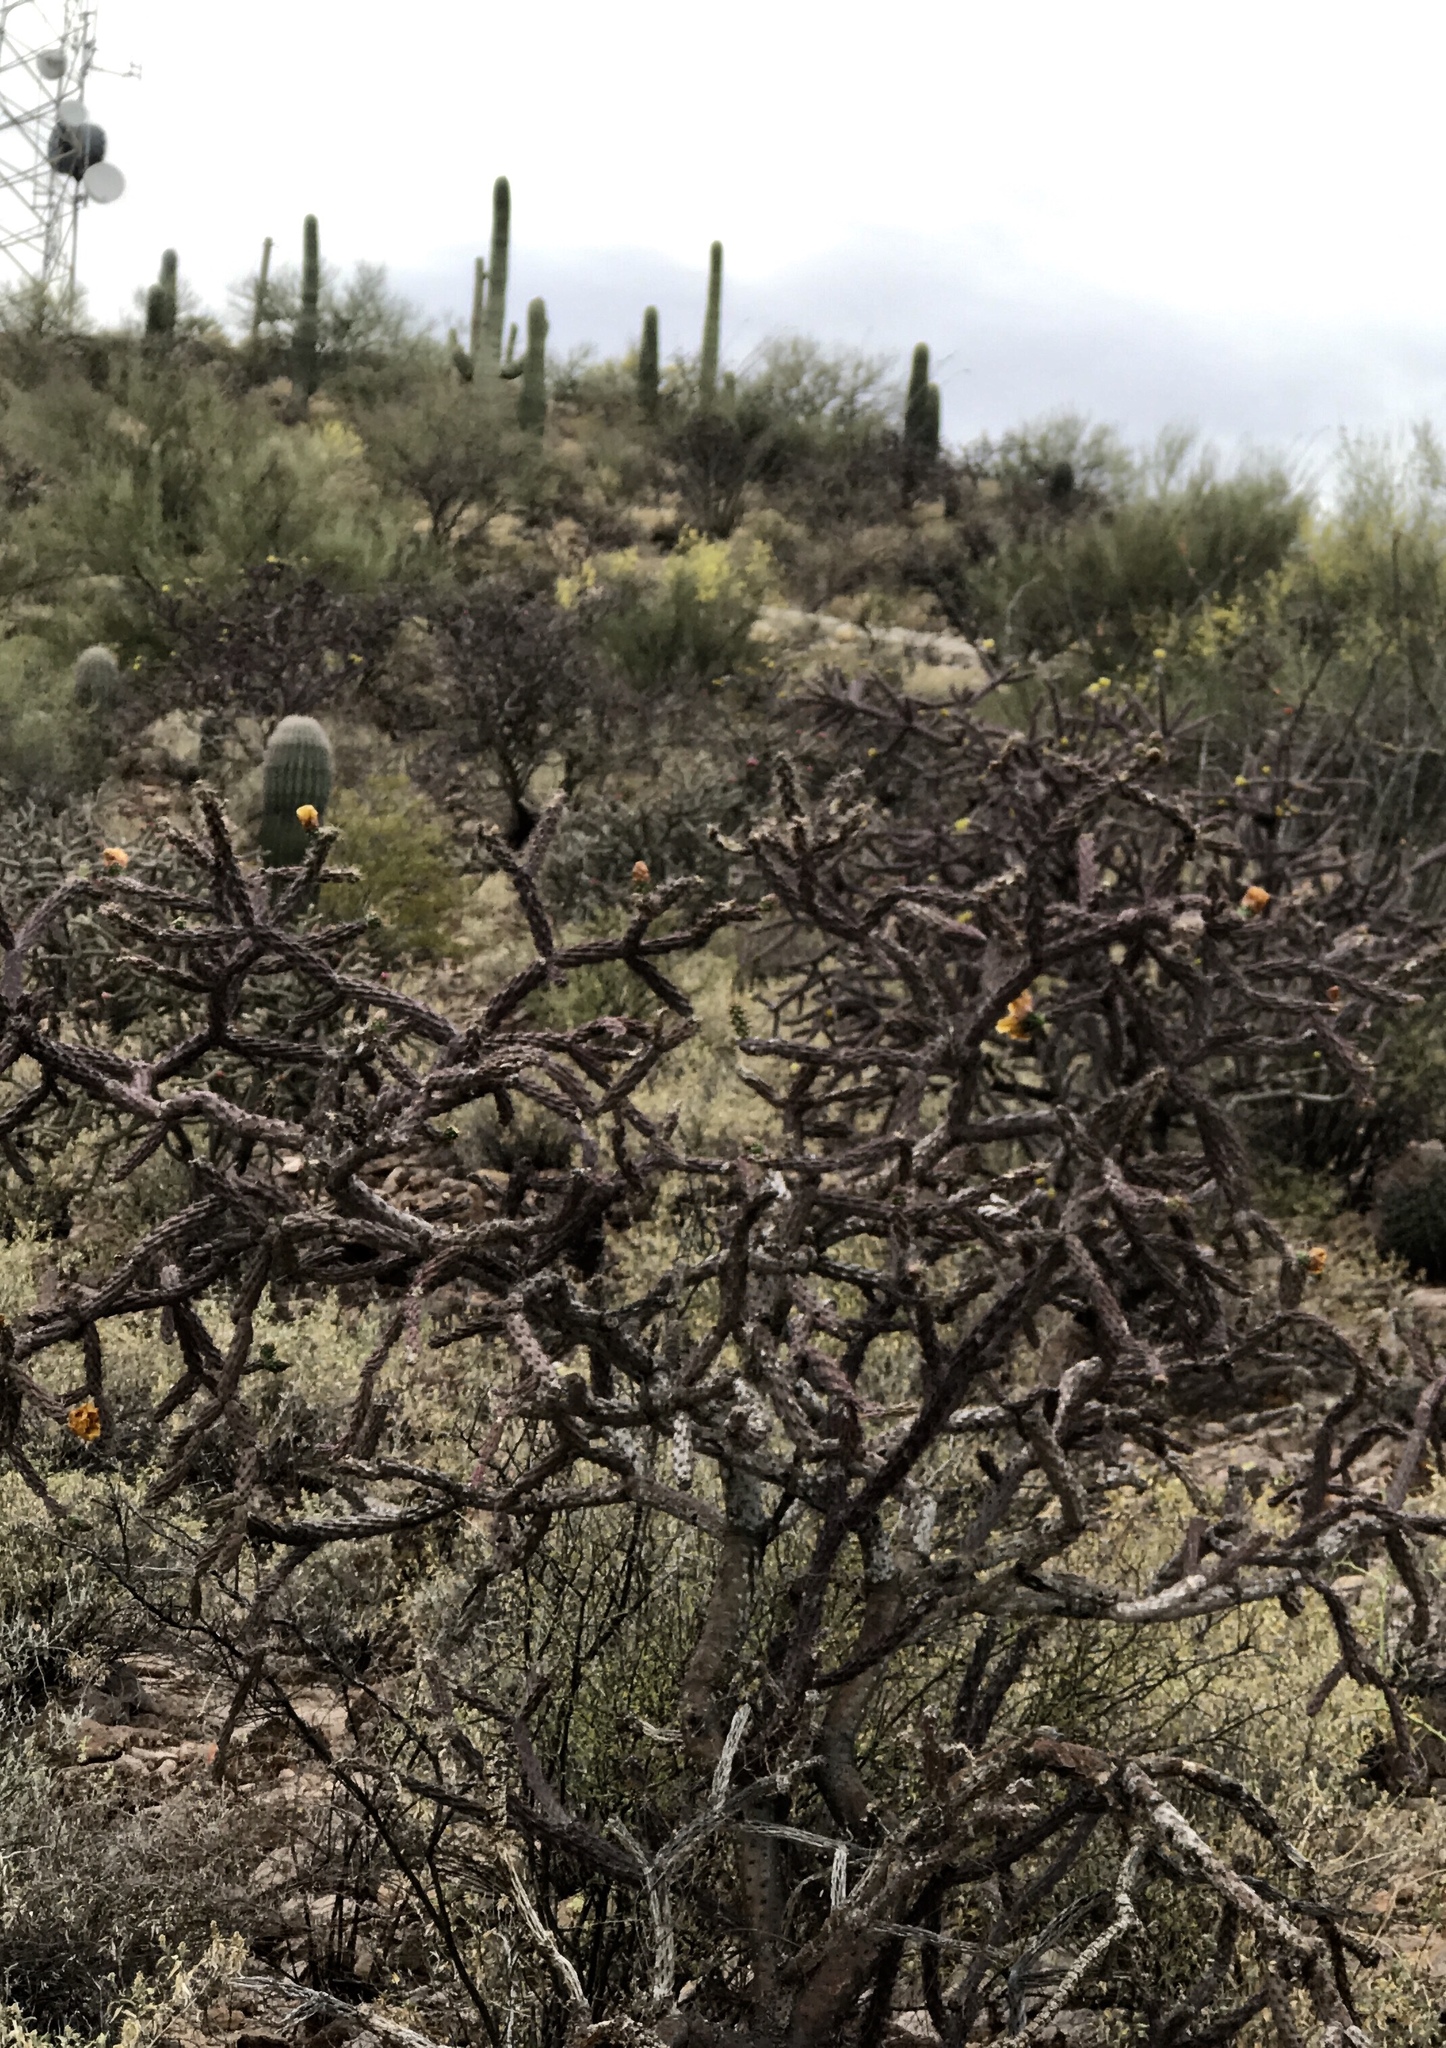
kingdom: Plantae
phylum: Tracheophyta
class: Magnoliopsida
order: Caryophyllales
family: Cactaceae
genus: Cylindropuntia
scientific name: Cylindropuntia thurberi
